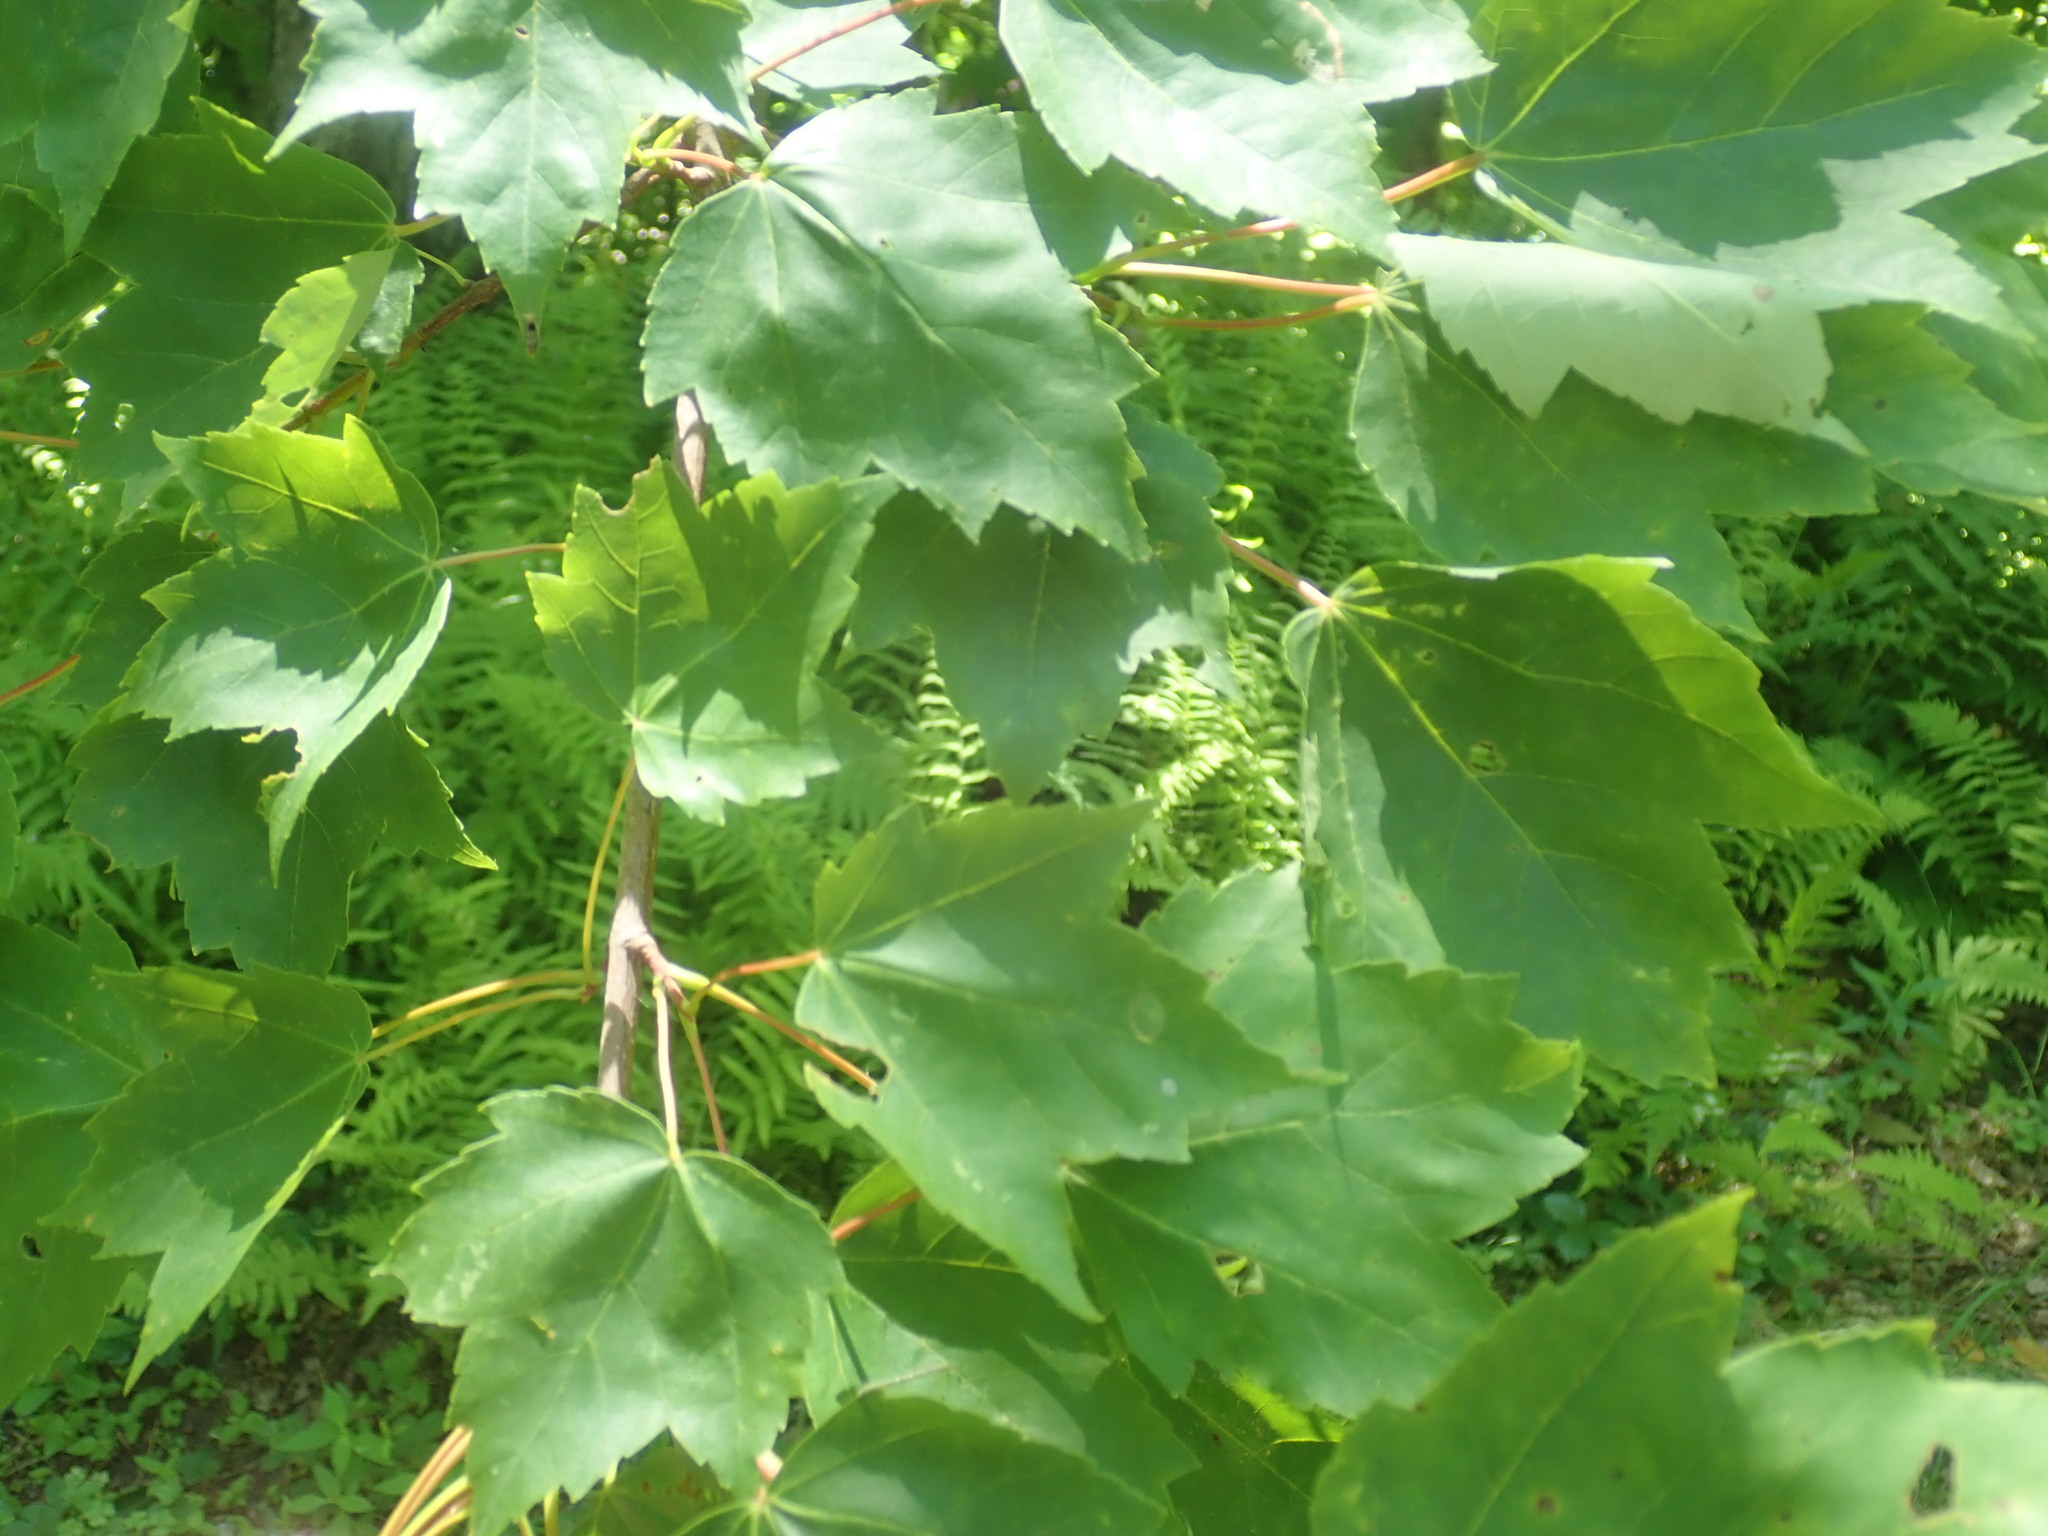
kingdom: Plantae
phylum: Tracheophyta
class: Magnoliopsida
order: Sapindales
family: Sapindaceae
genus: Acer
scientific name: Acer rubrum
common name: Red maple
